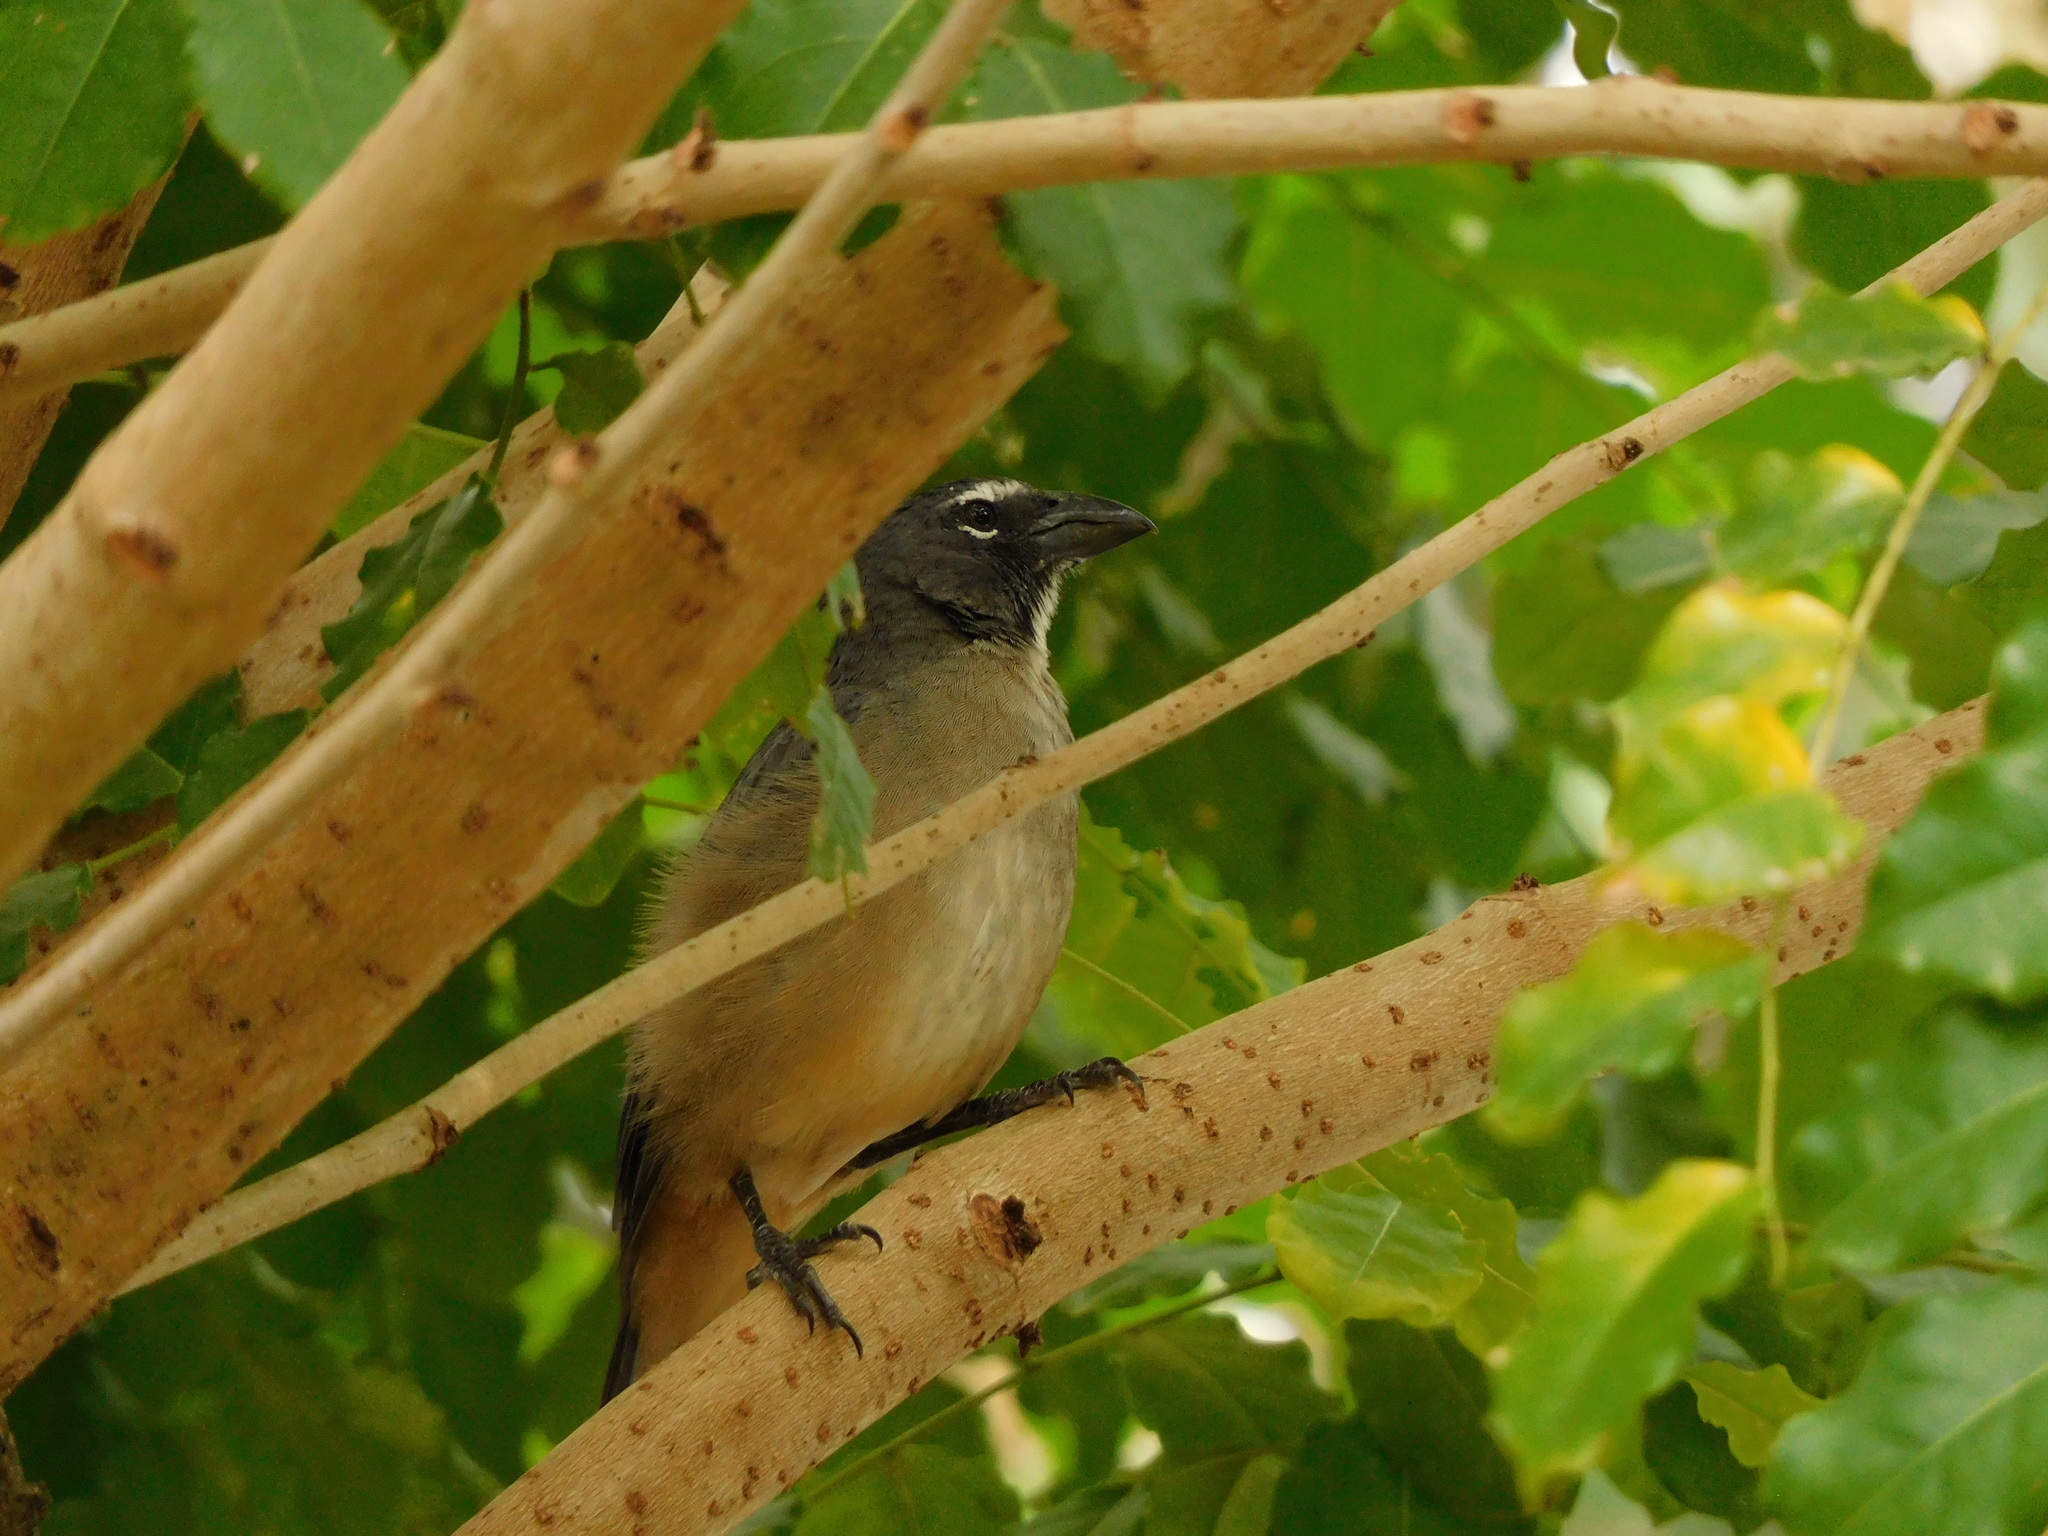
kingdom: Animalia
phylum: Chordata
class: Aves
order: Passeriformes
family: Thraupidae
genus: Saltator
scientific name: Saltator olivascens
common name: Caribbean grey saltator
